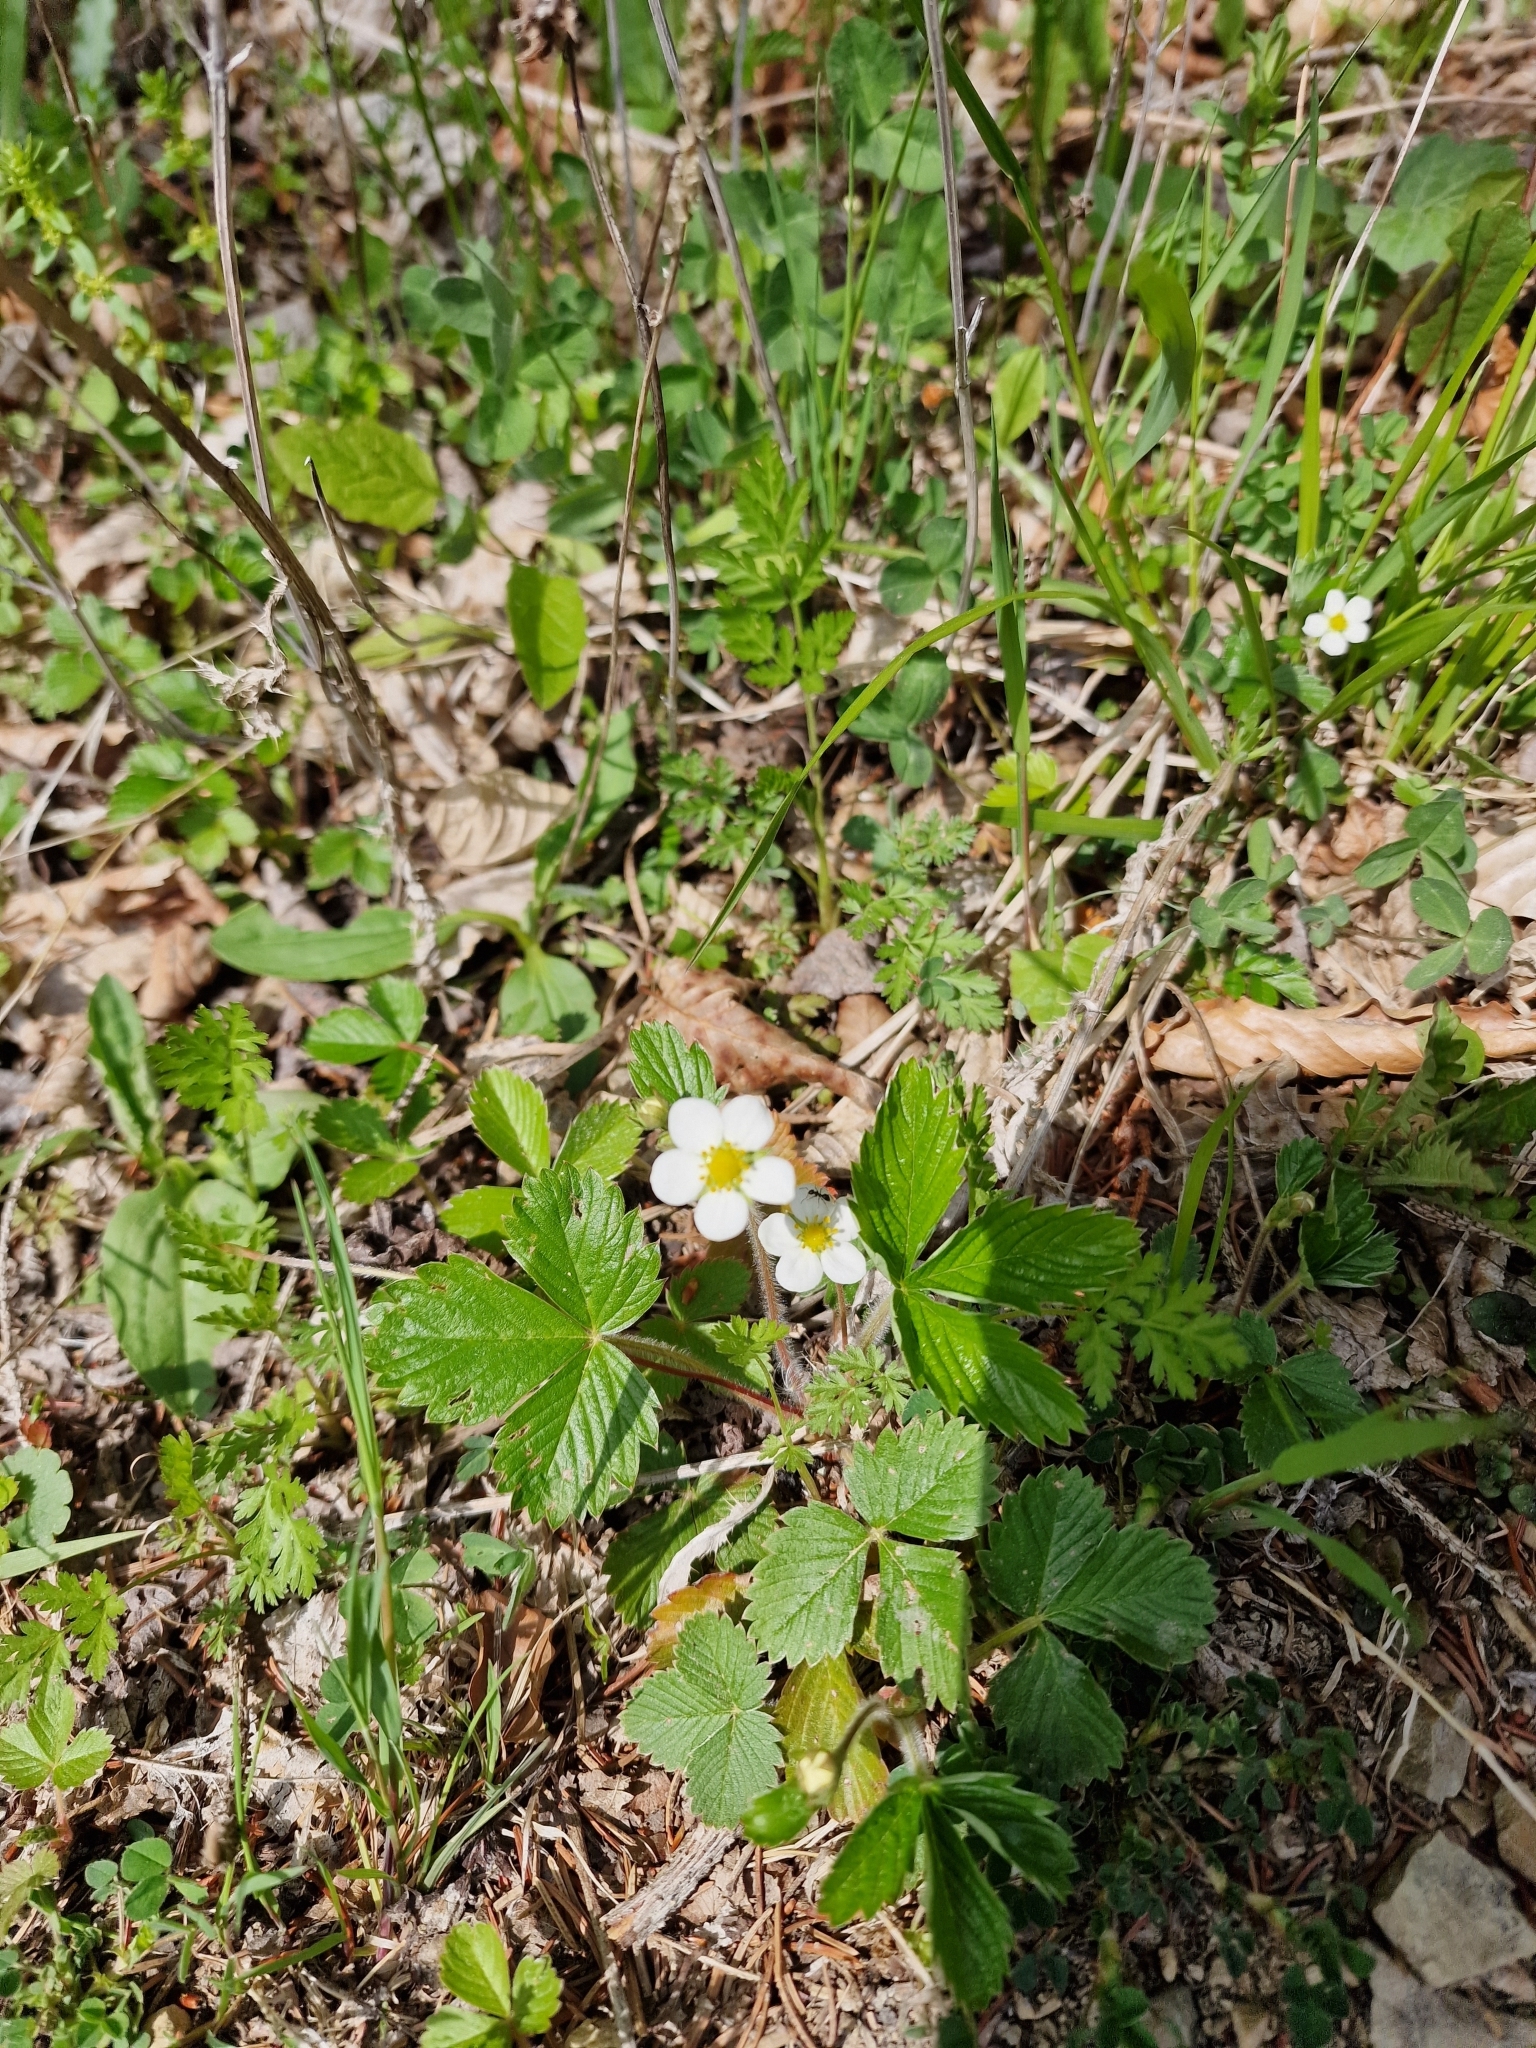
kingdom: Plantae
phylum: Tracheophyta
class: Magnoliopsida
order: Rosales
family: Rosaceae
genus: Fragaria
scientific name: Fragaria vesca
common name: Wild strawberry
